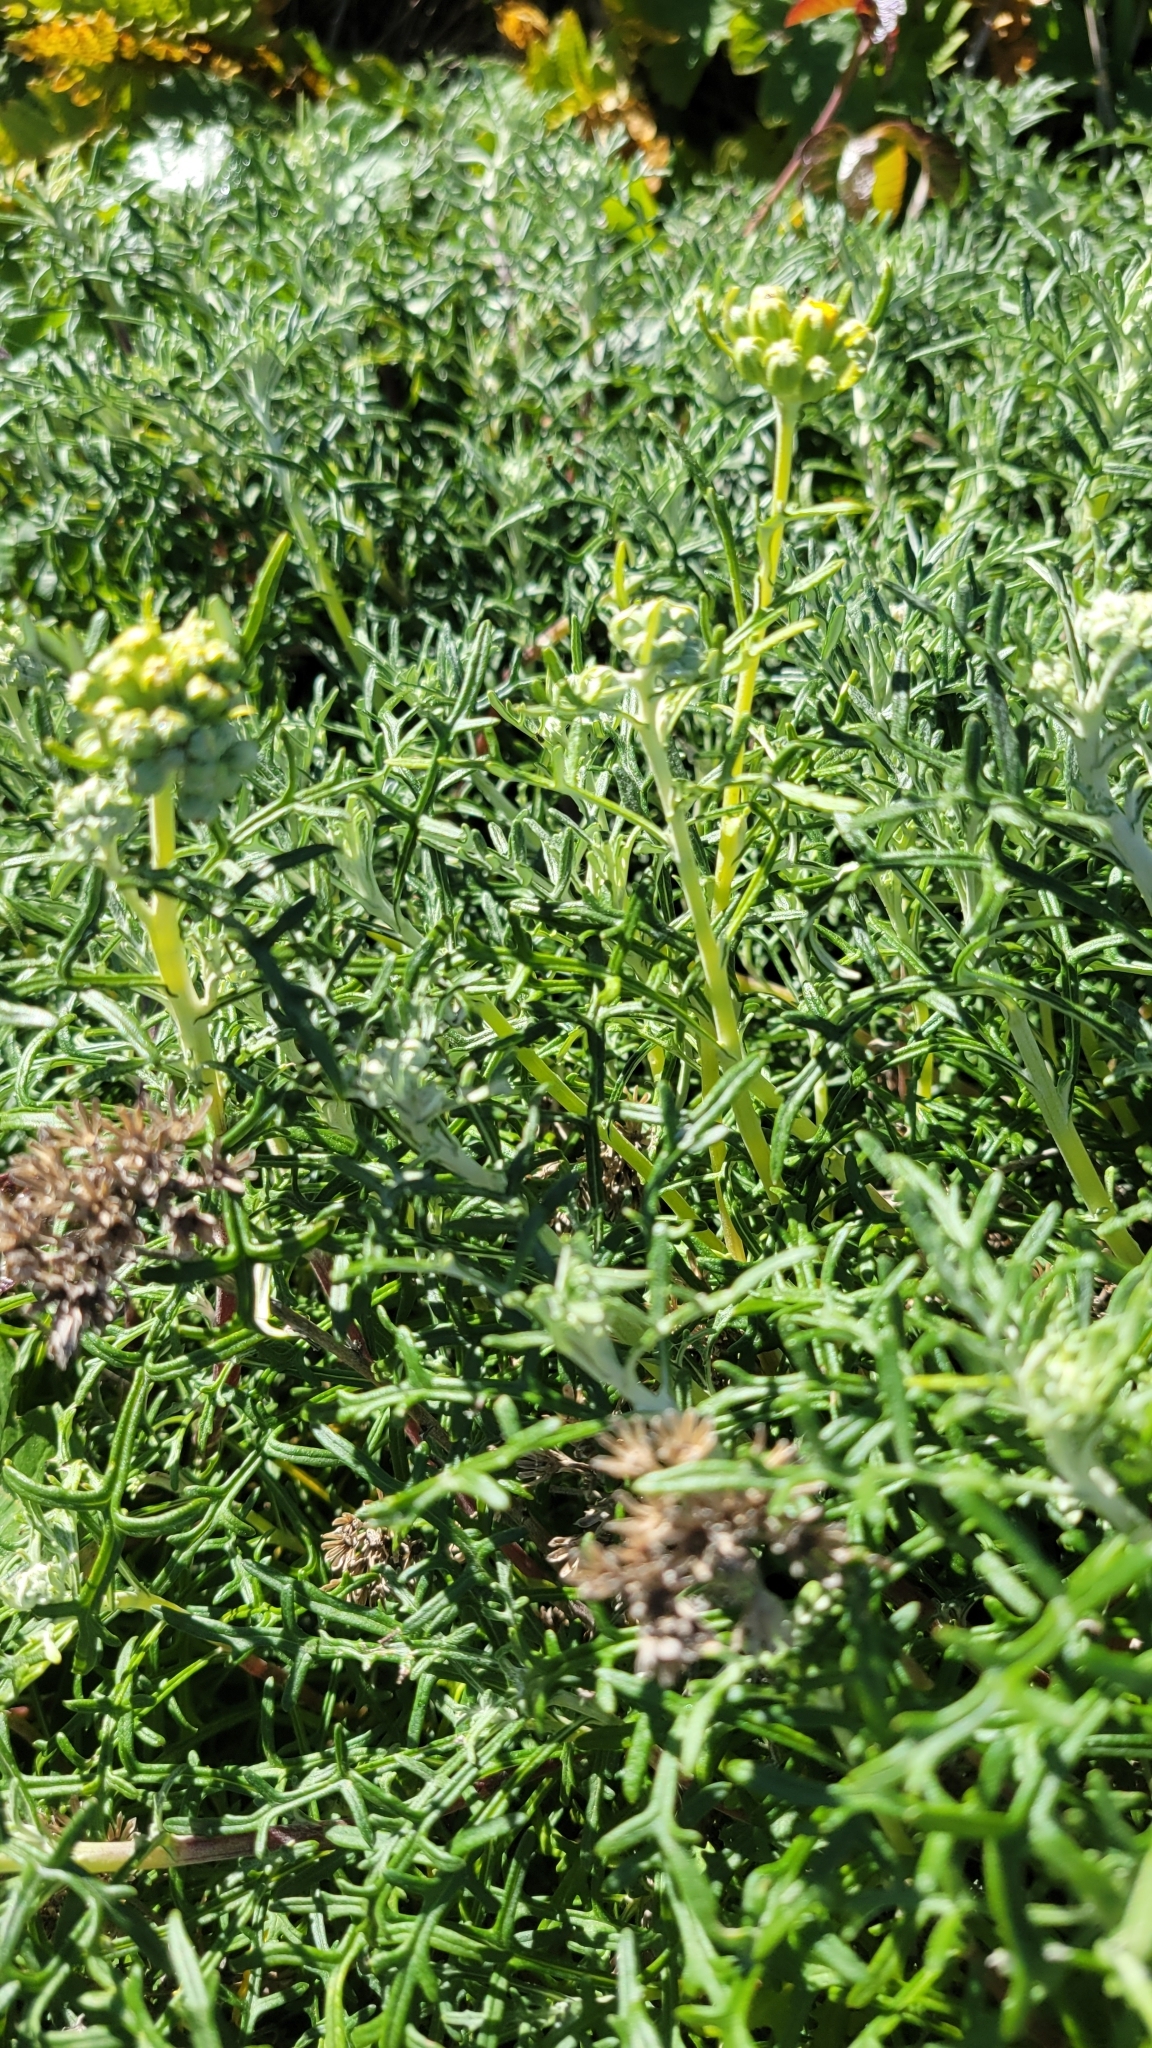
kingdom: Plantae
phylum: Tracheophyta
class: Magnoliopsida
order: Asterales
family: Asteraceae
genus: Eriophyllum
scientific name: Eriophyllum staechadifolium
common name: Lizardtail
